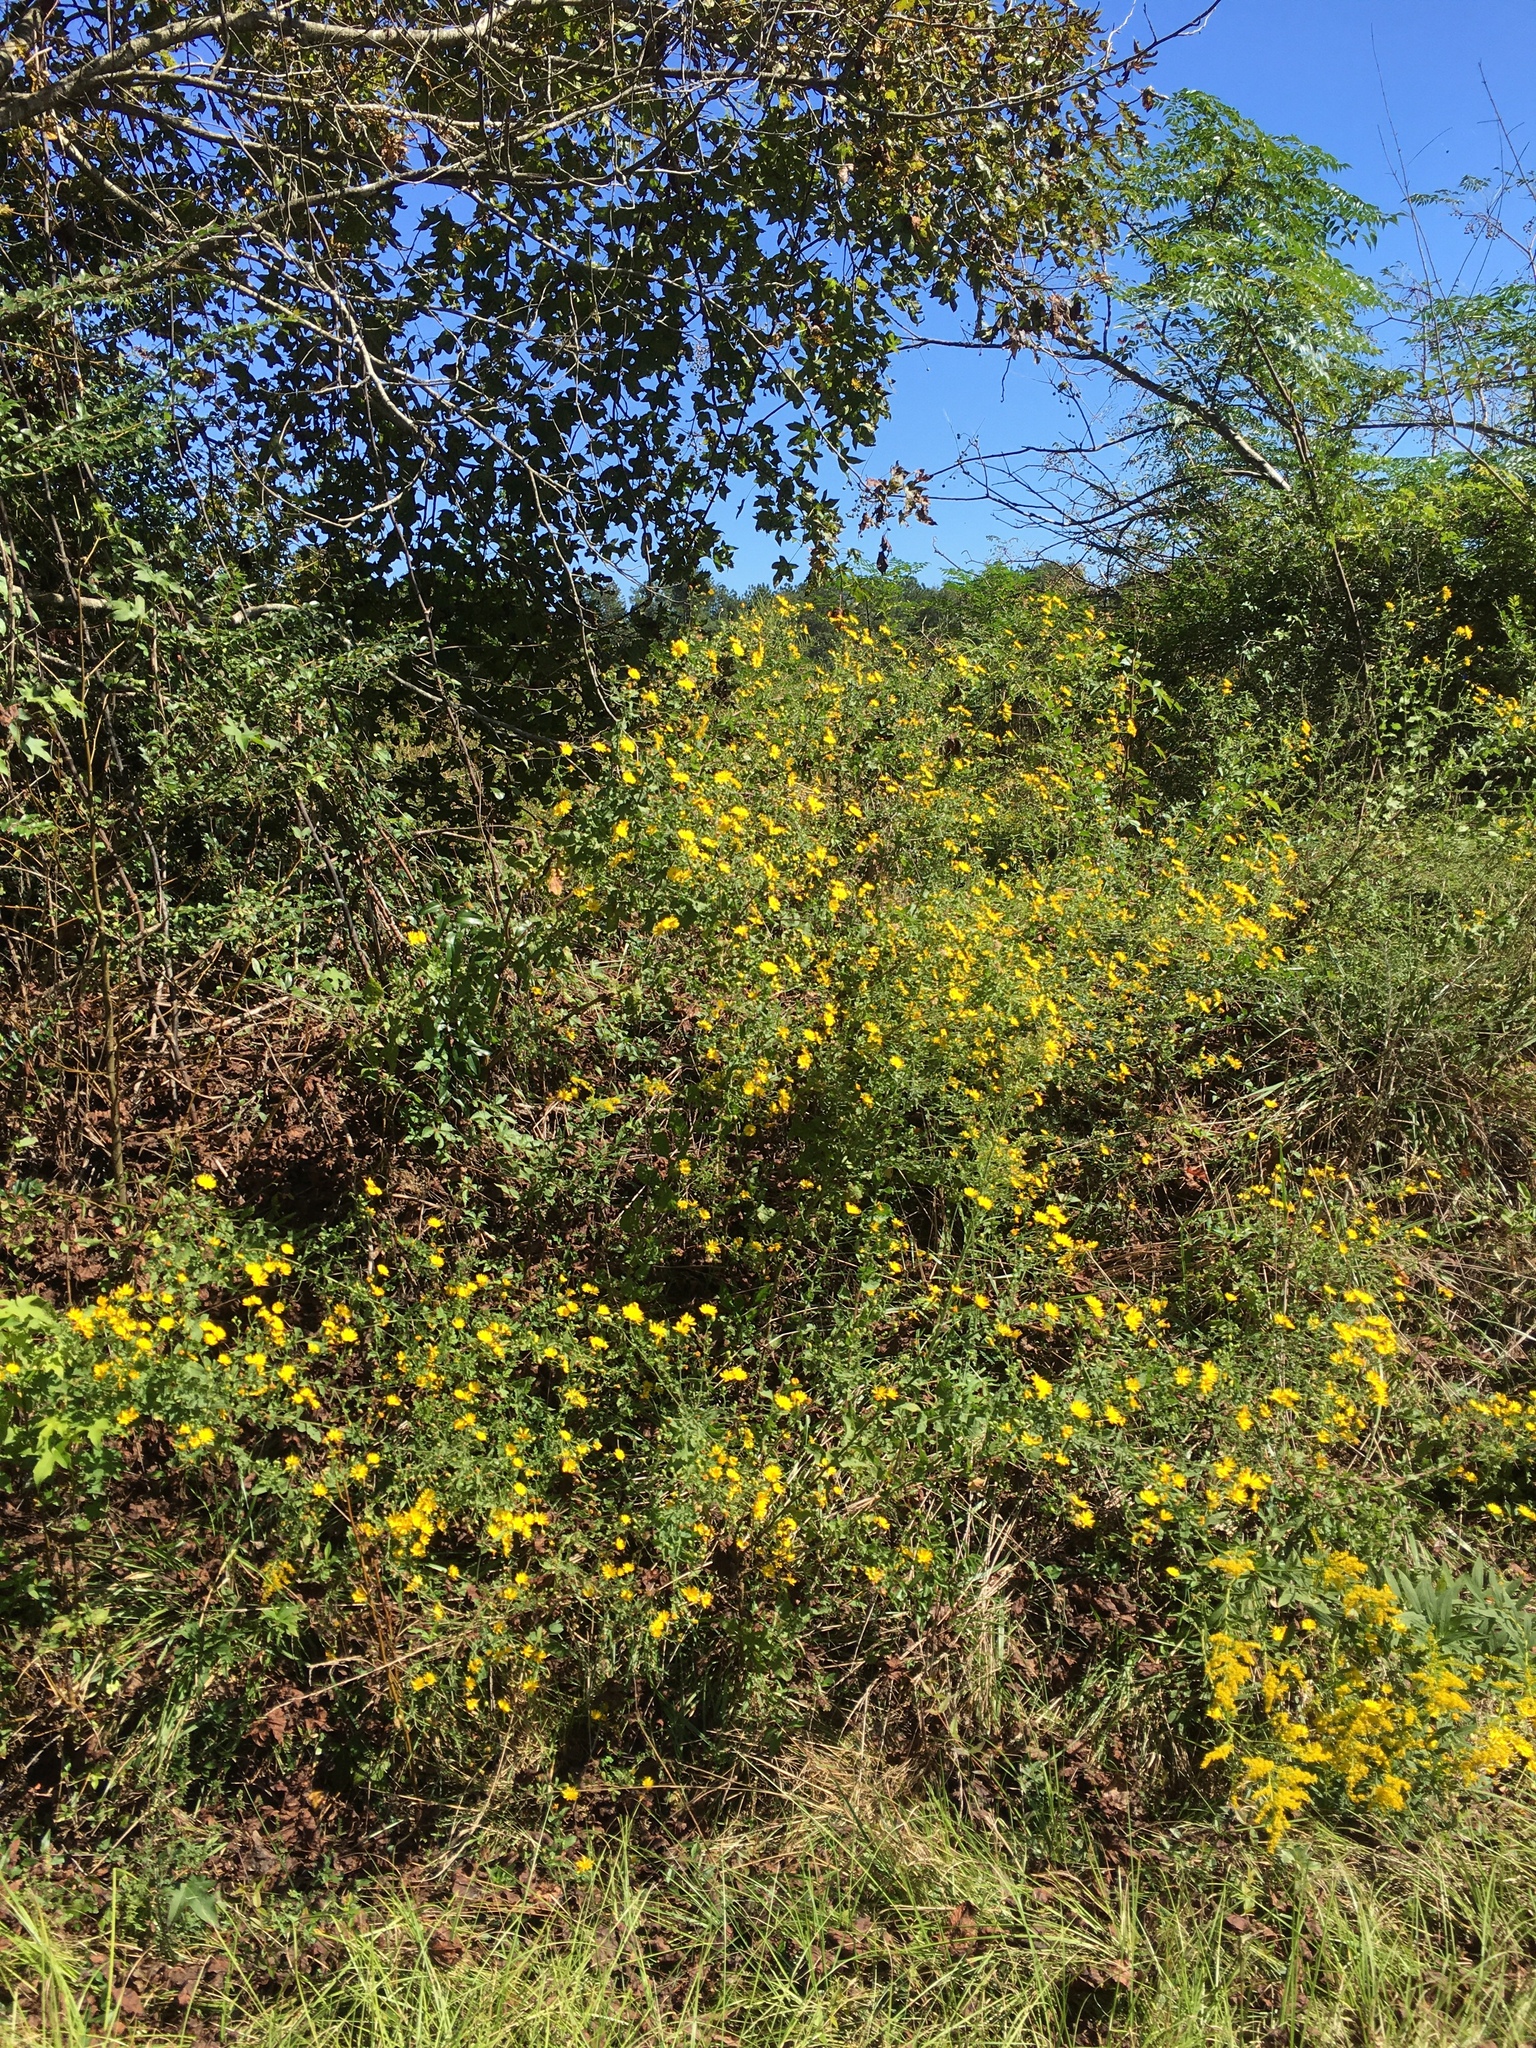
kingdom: Plantae
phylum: Tracheophyta
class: Magnoliopsida
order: Asterales
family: Asteraceae
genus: Heterotheca
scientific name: Heterotheca subaxillaris
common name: Camphorweed
